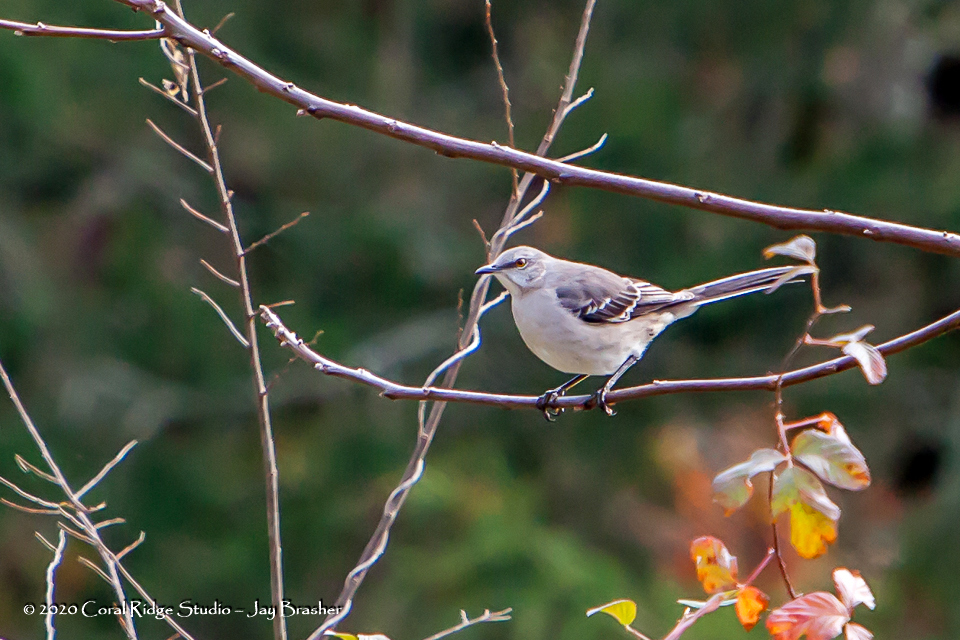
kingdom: Animalia
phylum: Chordata
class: Aves
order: Passeriformes
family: Mimidae
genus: Mimus
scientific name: Mimus polyglottos
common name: Northern mockingbird
